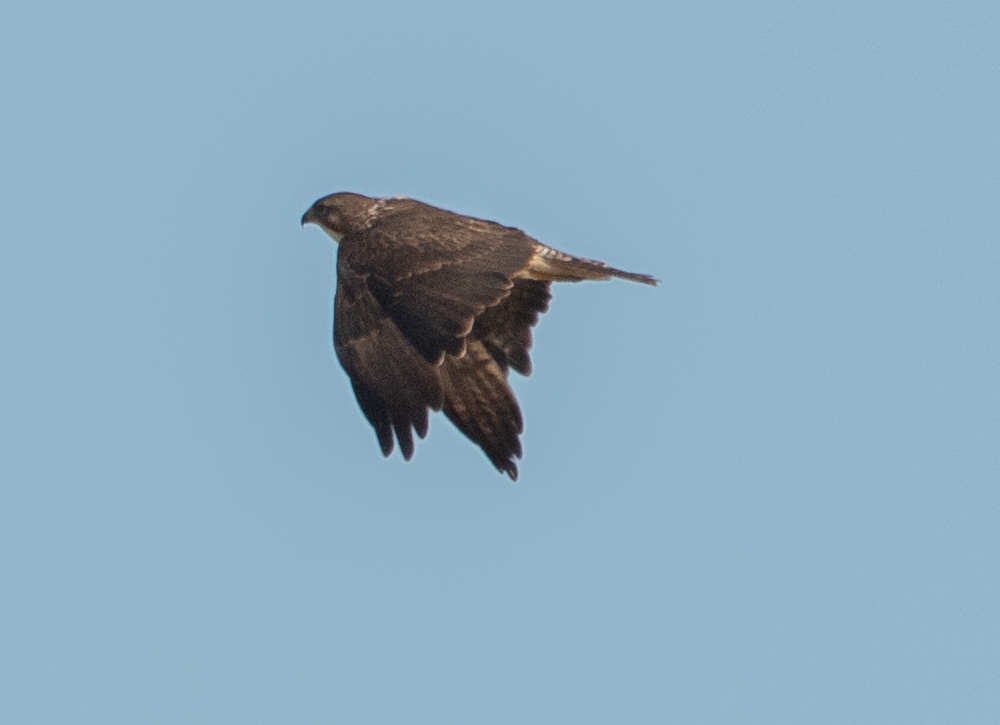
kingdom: Animalia
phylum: Chordata
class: Aves
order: Accipitriformes
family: Accipitridae
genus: Buteo
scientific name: Buteo swainsoni
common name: Swainson's hawk
